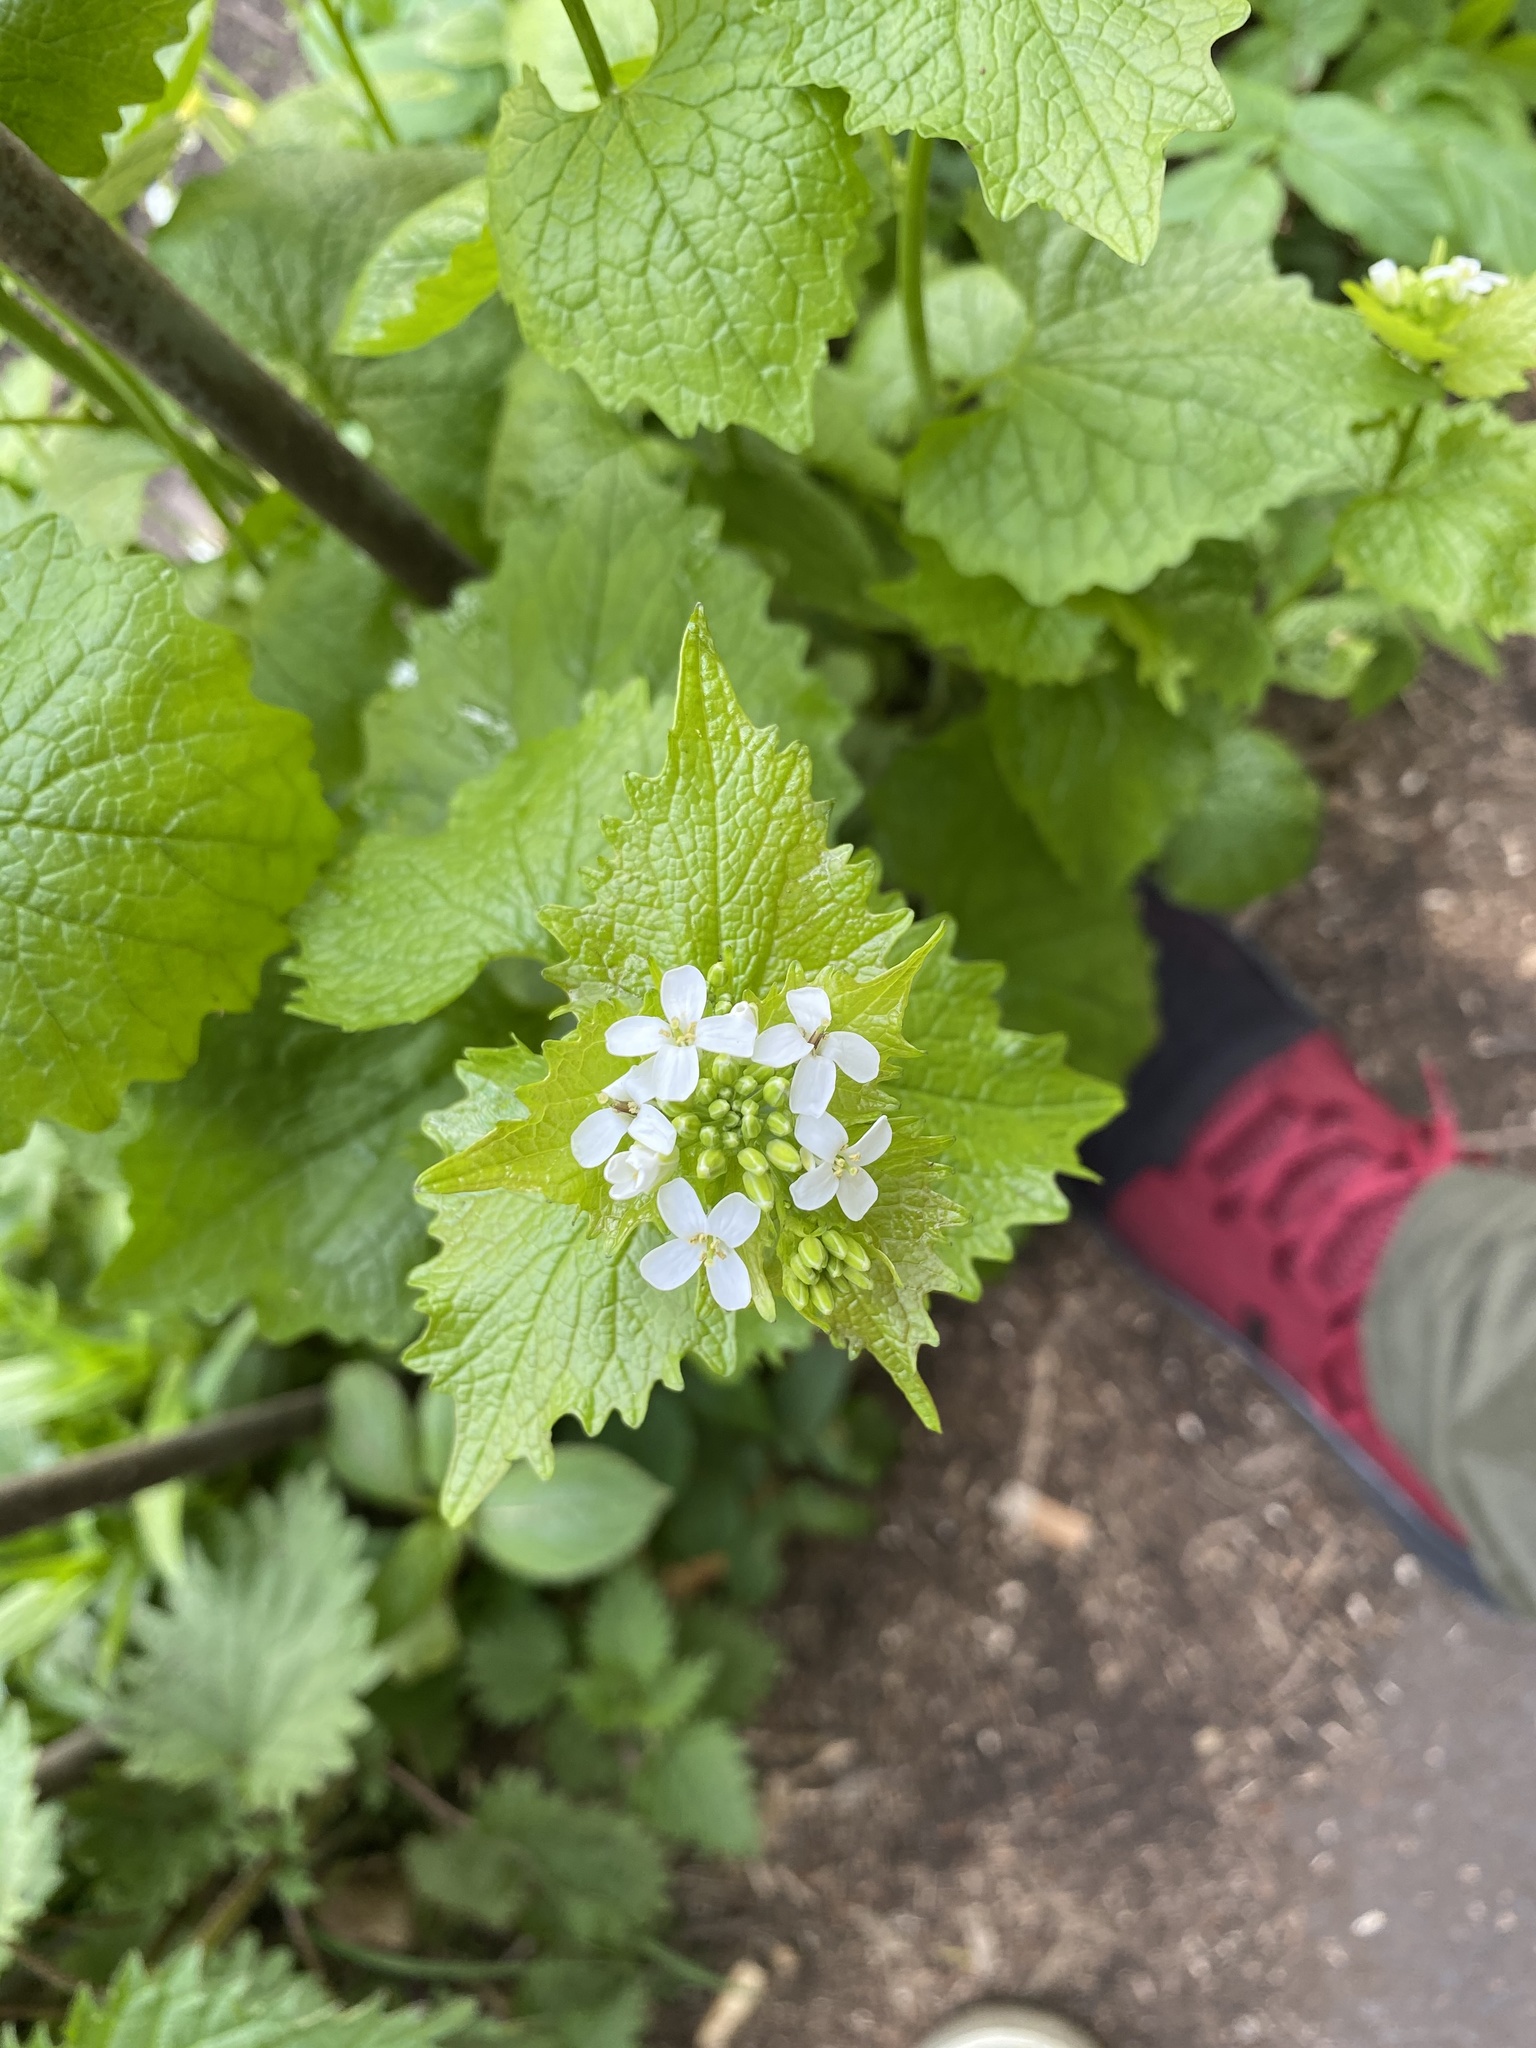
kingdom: Plantae
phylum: Tracheophyta
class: Magnoliopsida
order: Brassicales
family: Brassicaceae
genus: Alliaria
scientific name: Alliaria petiolata
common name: Garlic mustard
